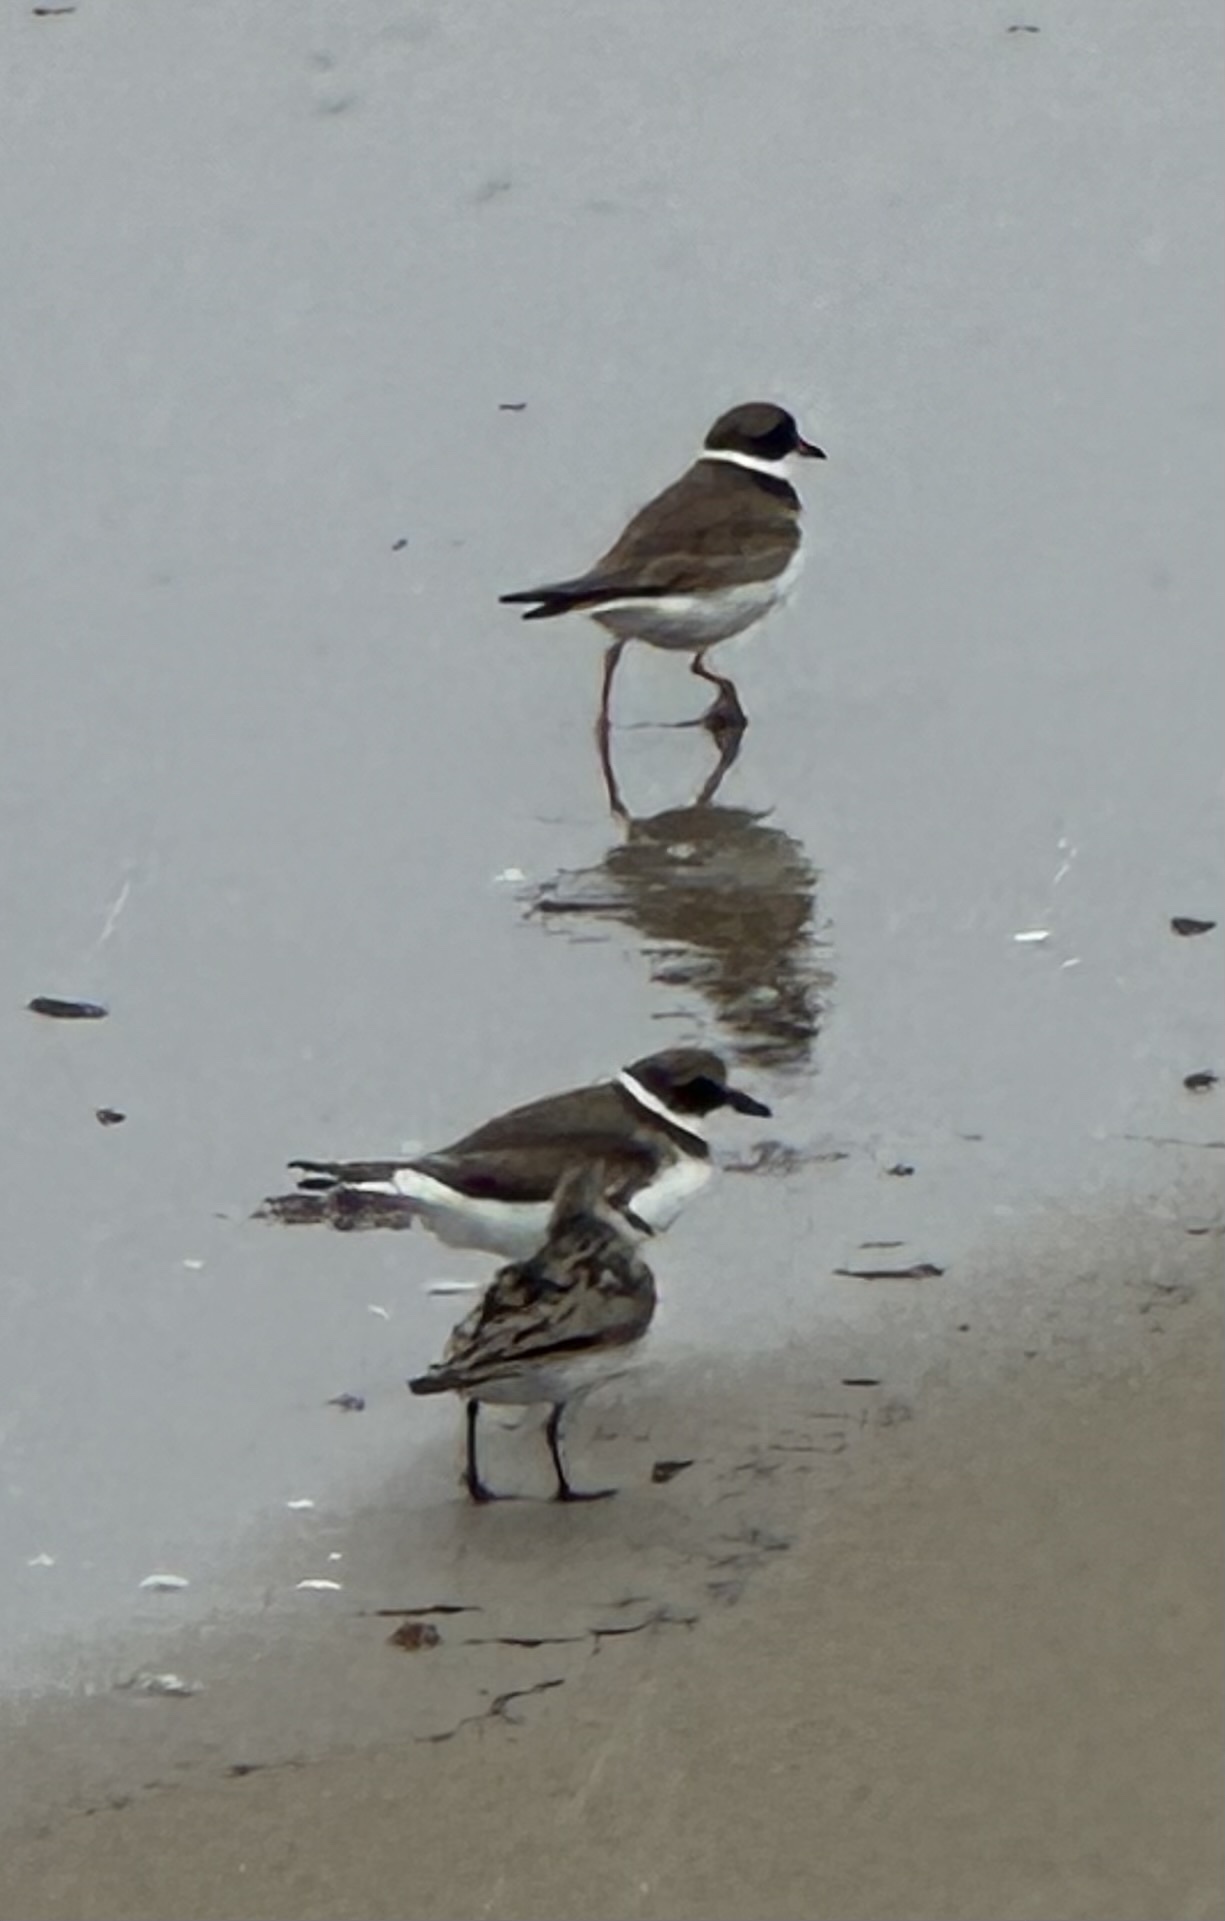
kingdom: Animalia
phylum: Chordata
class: Aves
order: Charadriiformes
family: Charadriidae
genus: Charadrius
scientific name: Charadrius semipalmatus
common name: Semipalmated plover
